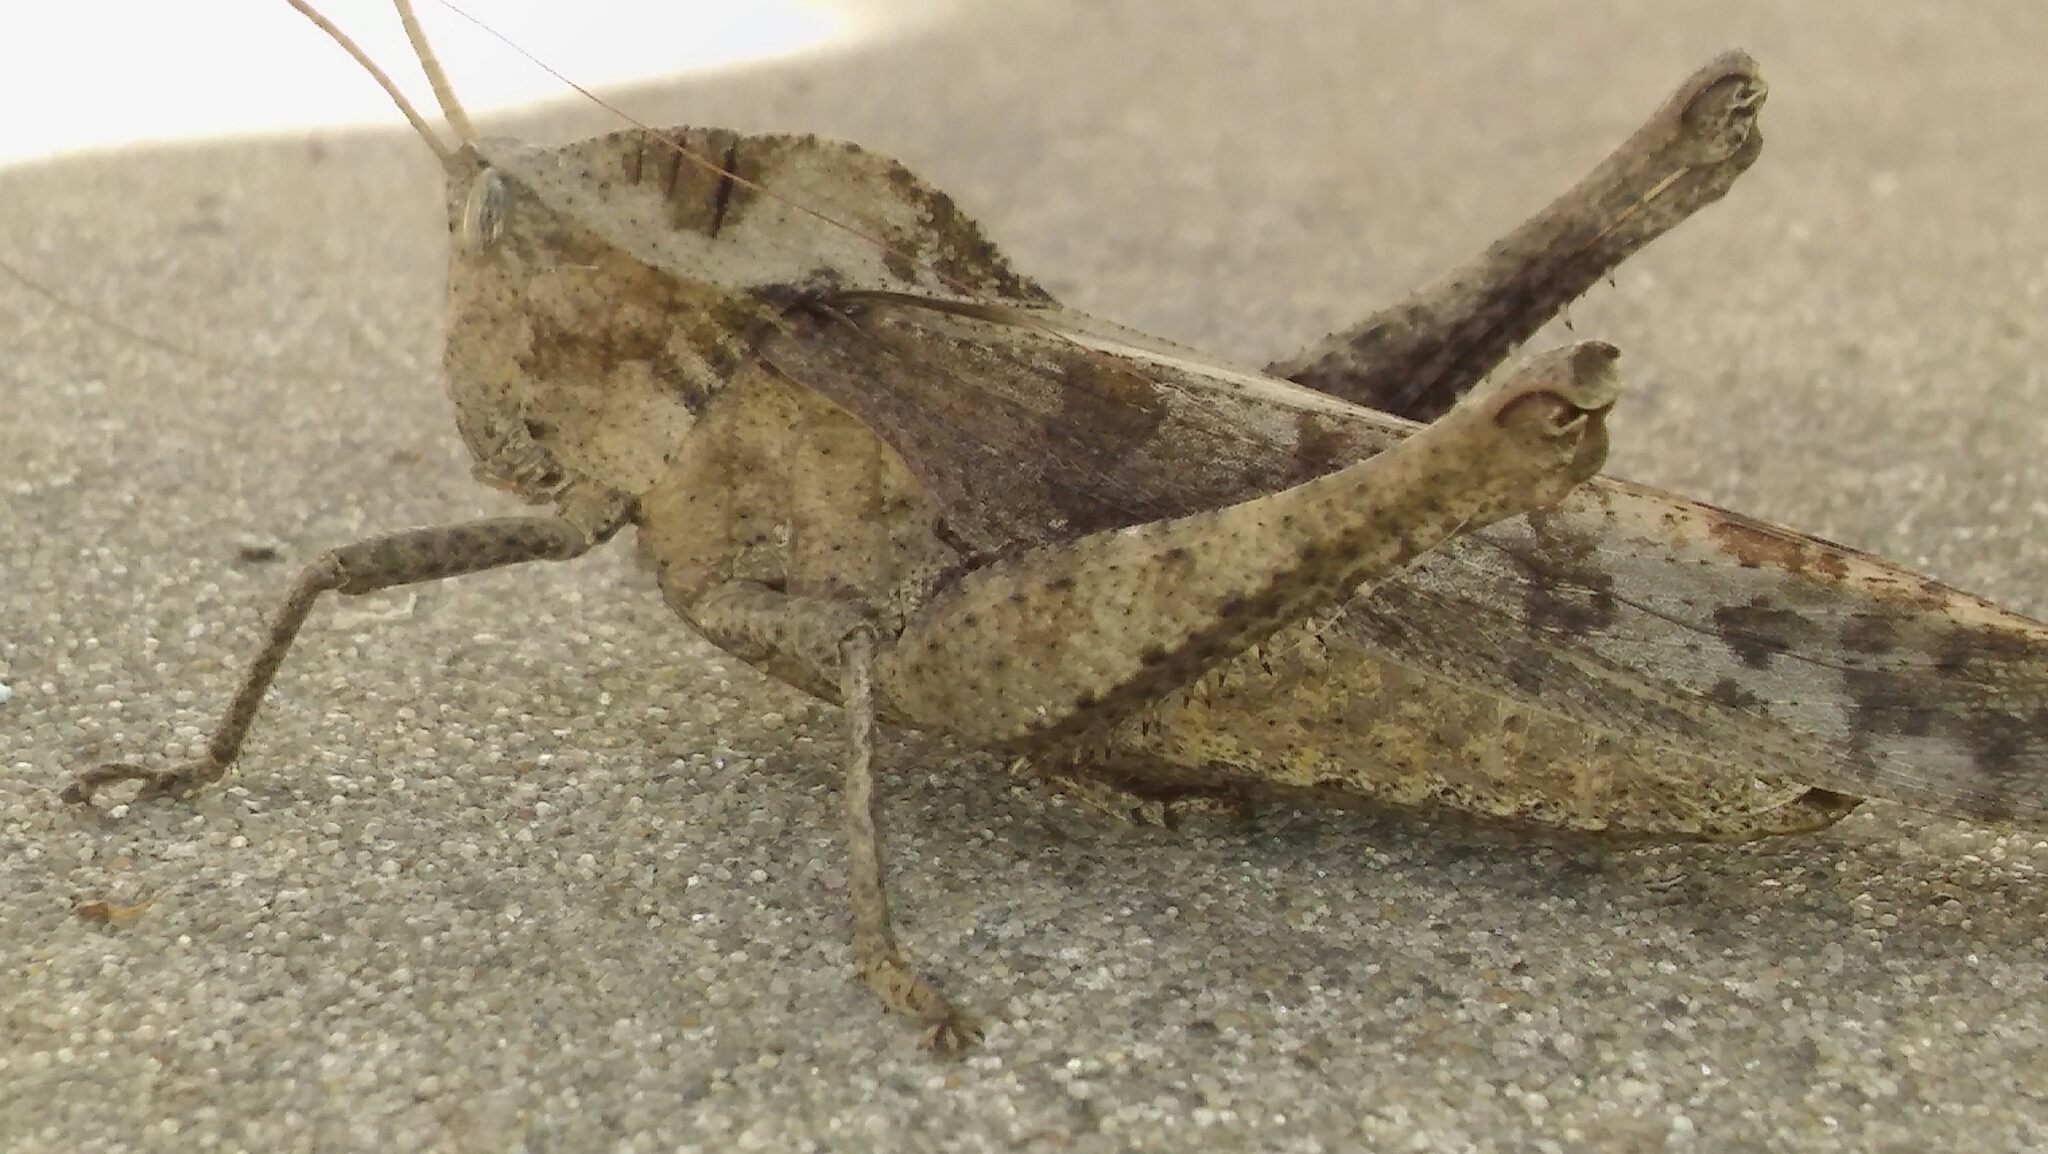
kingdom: Animalia
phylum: Arthropoda
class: Insecta
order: Orthoptera
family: Romaleidae
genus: Xyleus
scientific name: Xyleus discoideus
